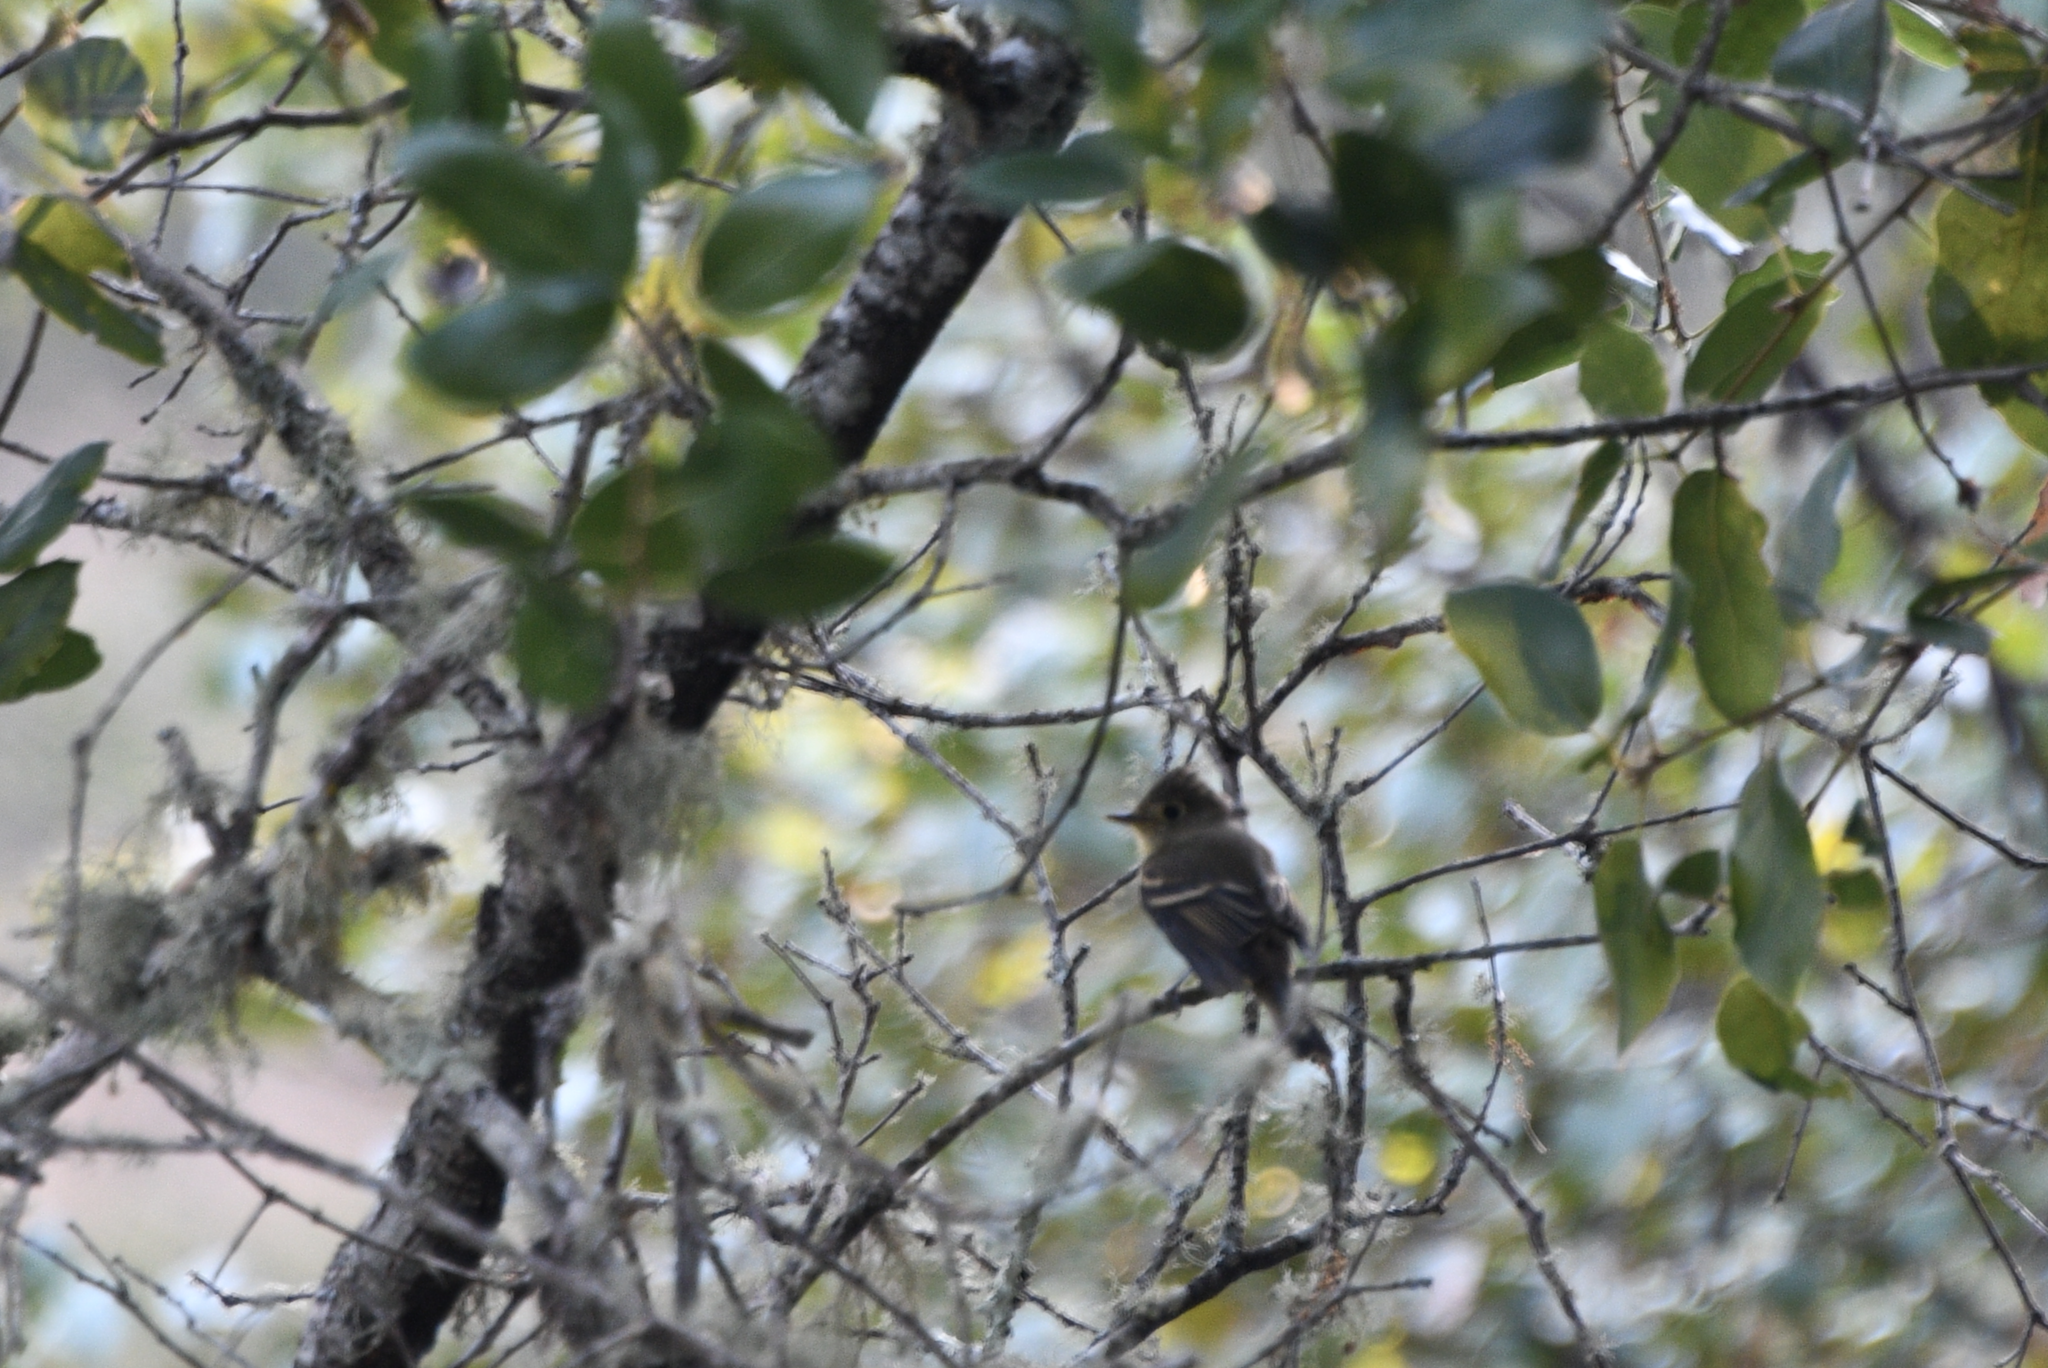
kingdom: Animalia
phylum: Chordata
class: Aves
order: Passeriformes
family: Tyrannidae
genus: Empidonax
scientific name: Empidonax difficilis
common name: Pacific-slope flycatcher
